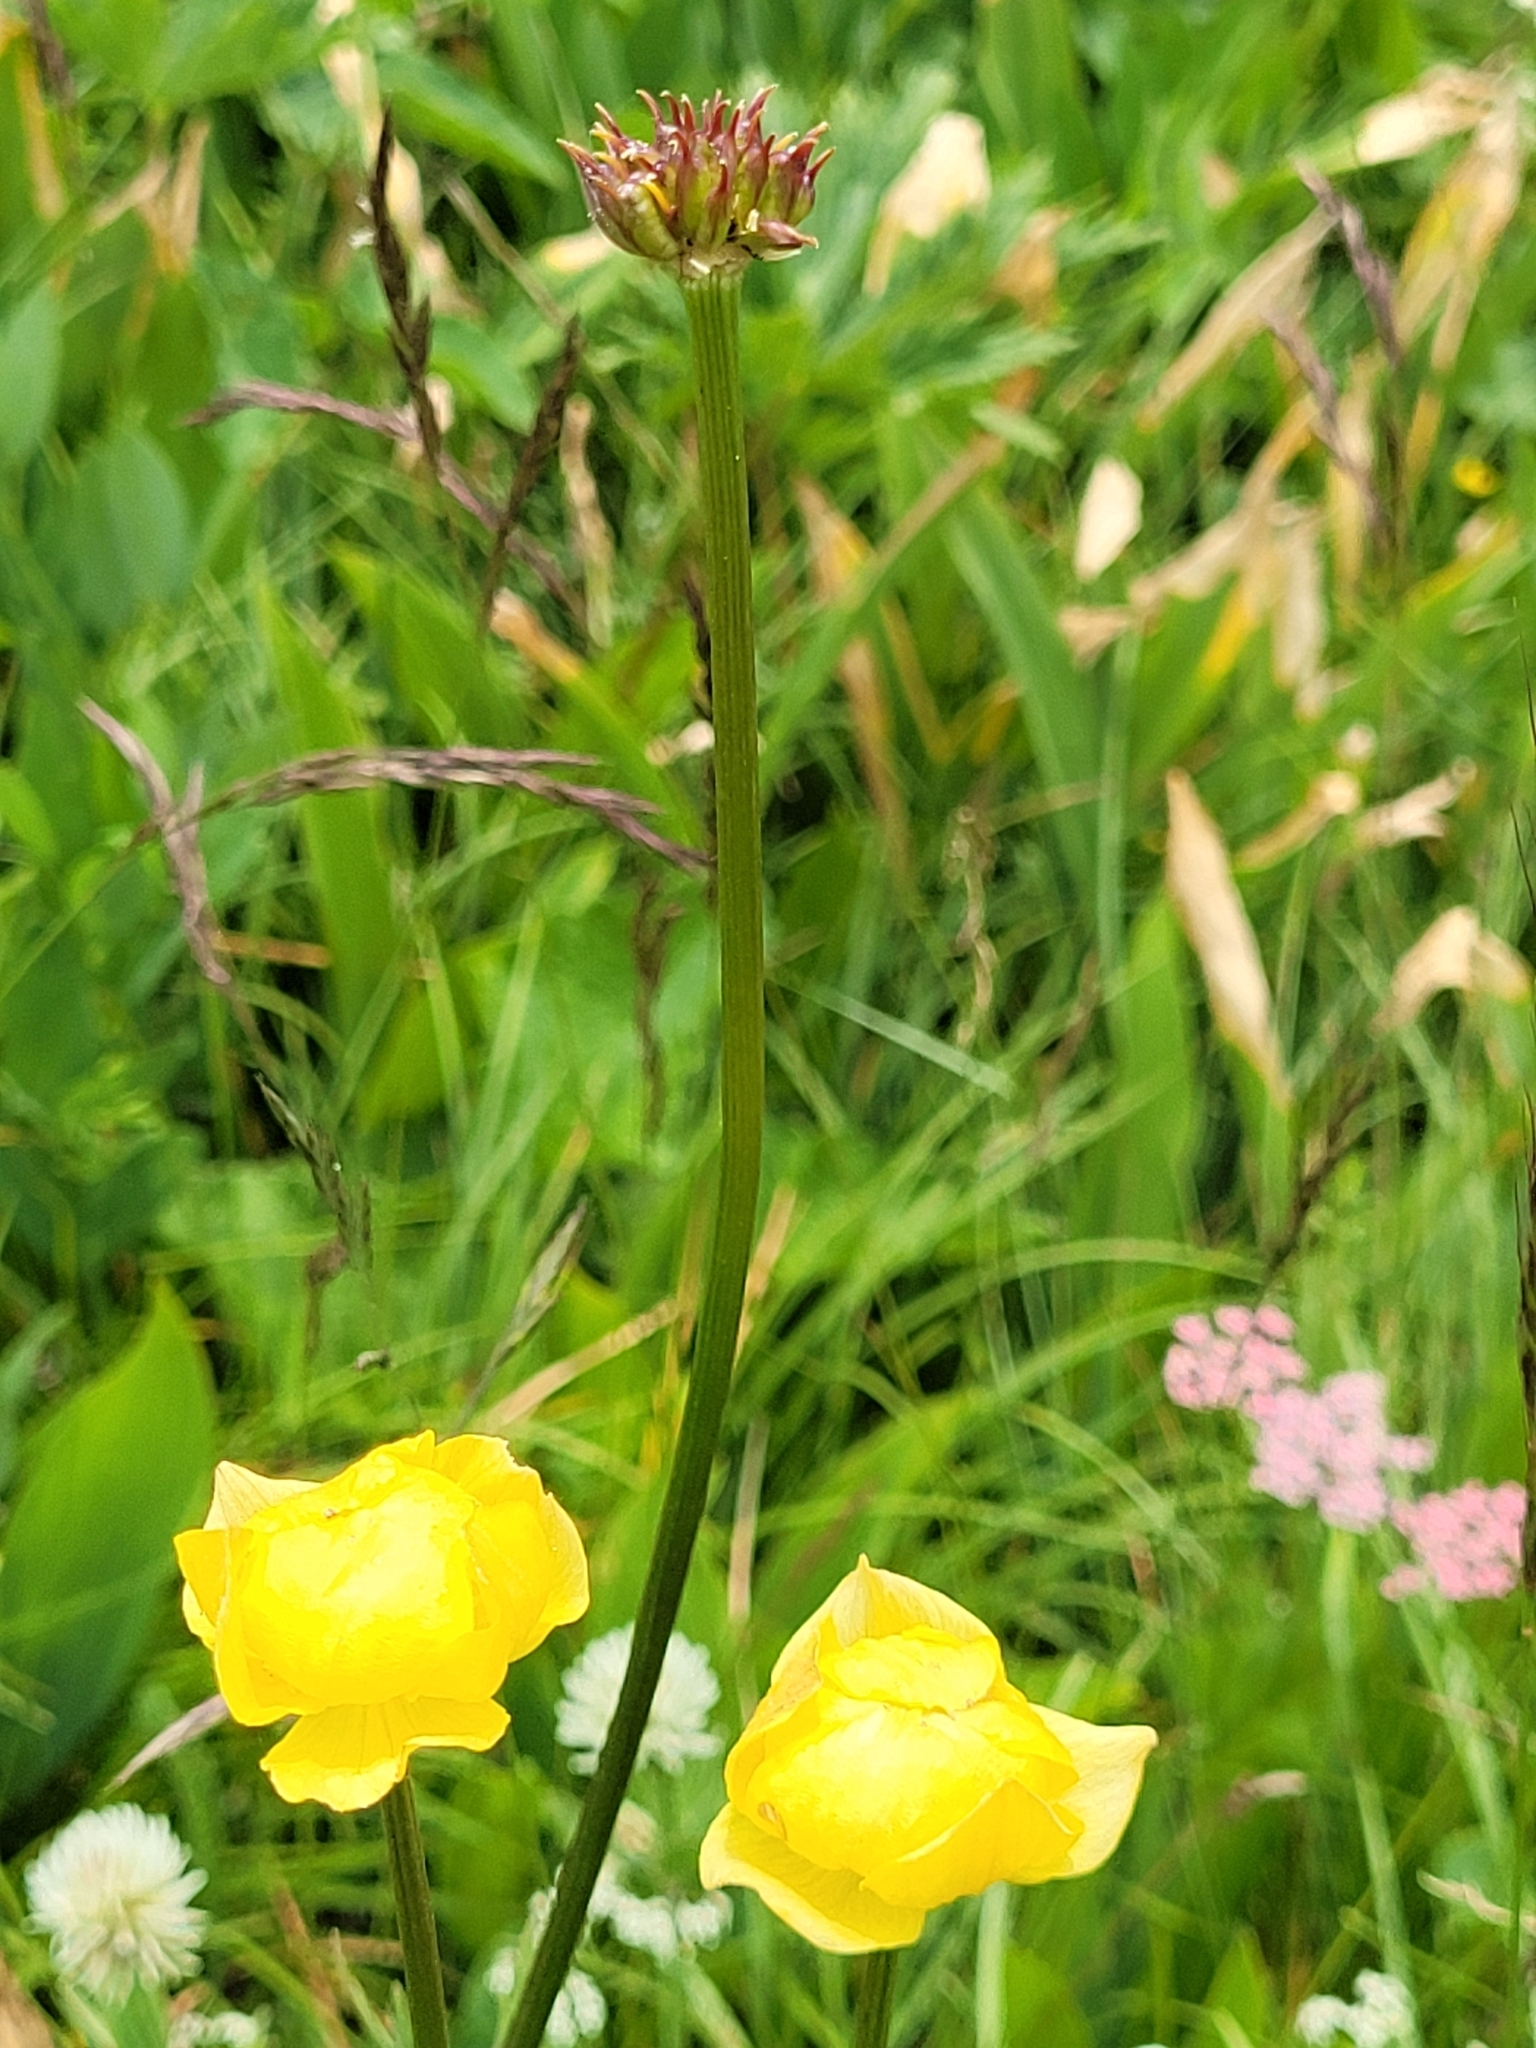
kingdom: Plantae
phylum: Tracheophyta
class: Magnoliopsida
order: Ranunculales
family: Ranunculaceae
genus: Trollius
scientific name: Trollius europaeus
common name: European globeflower
